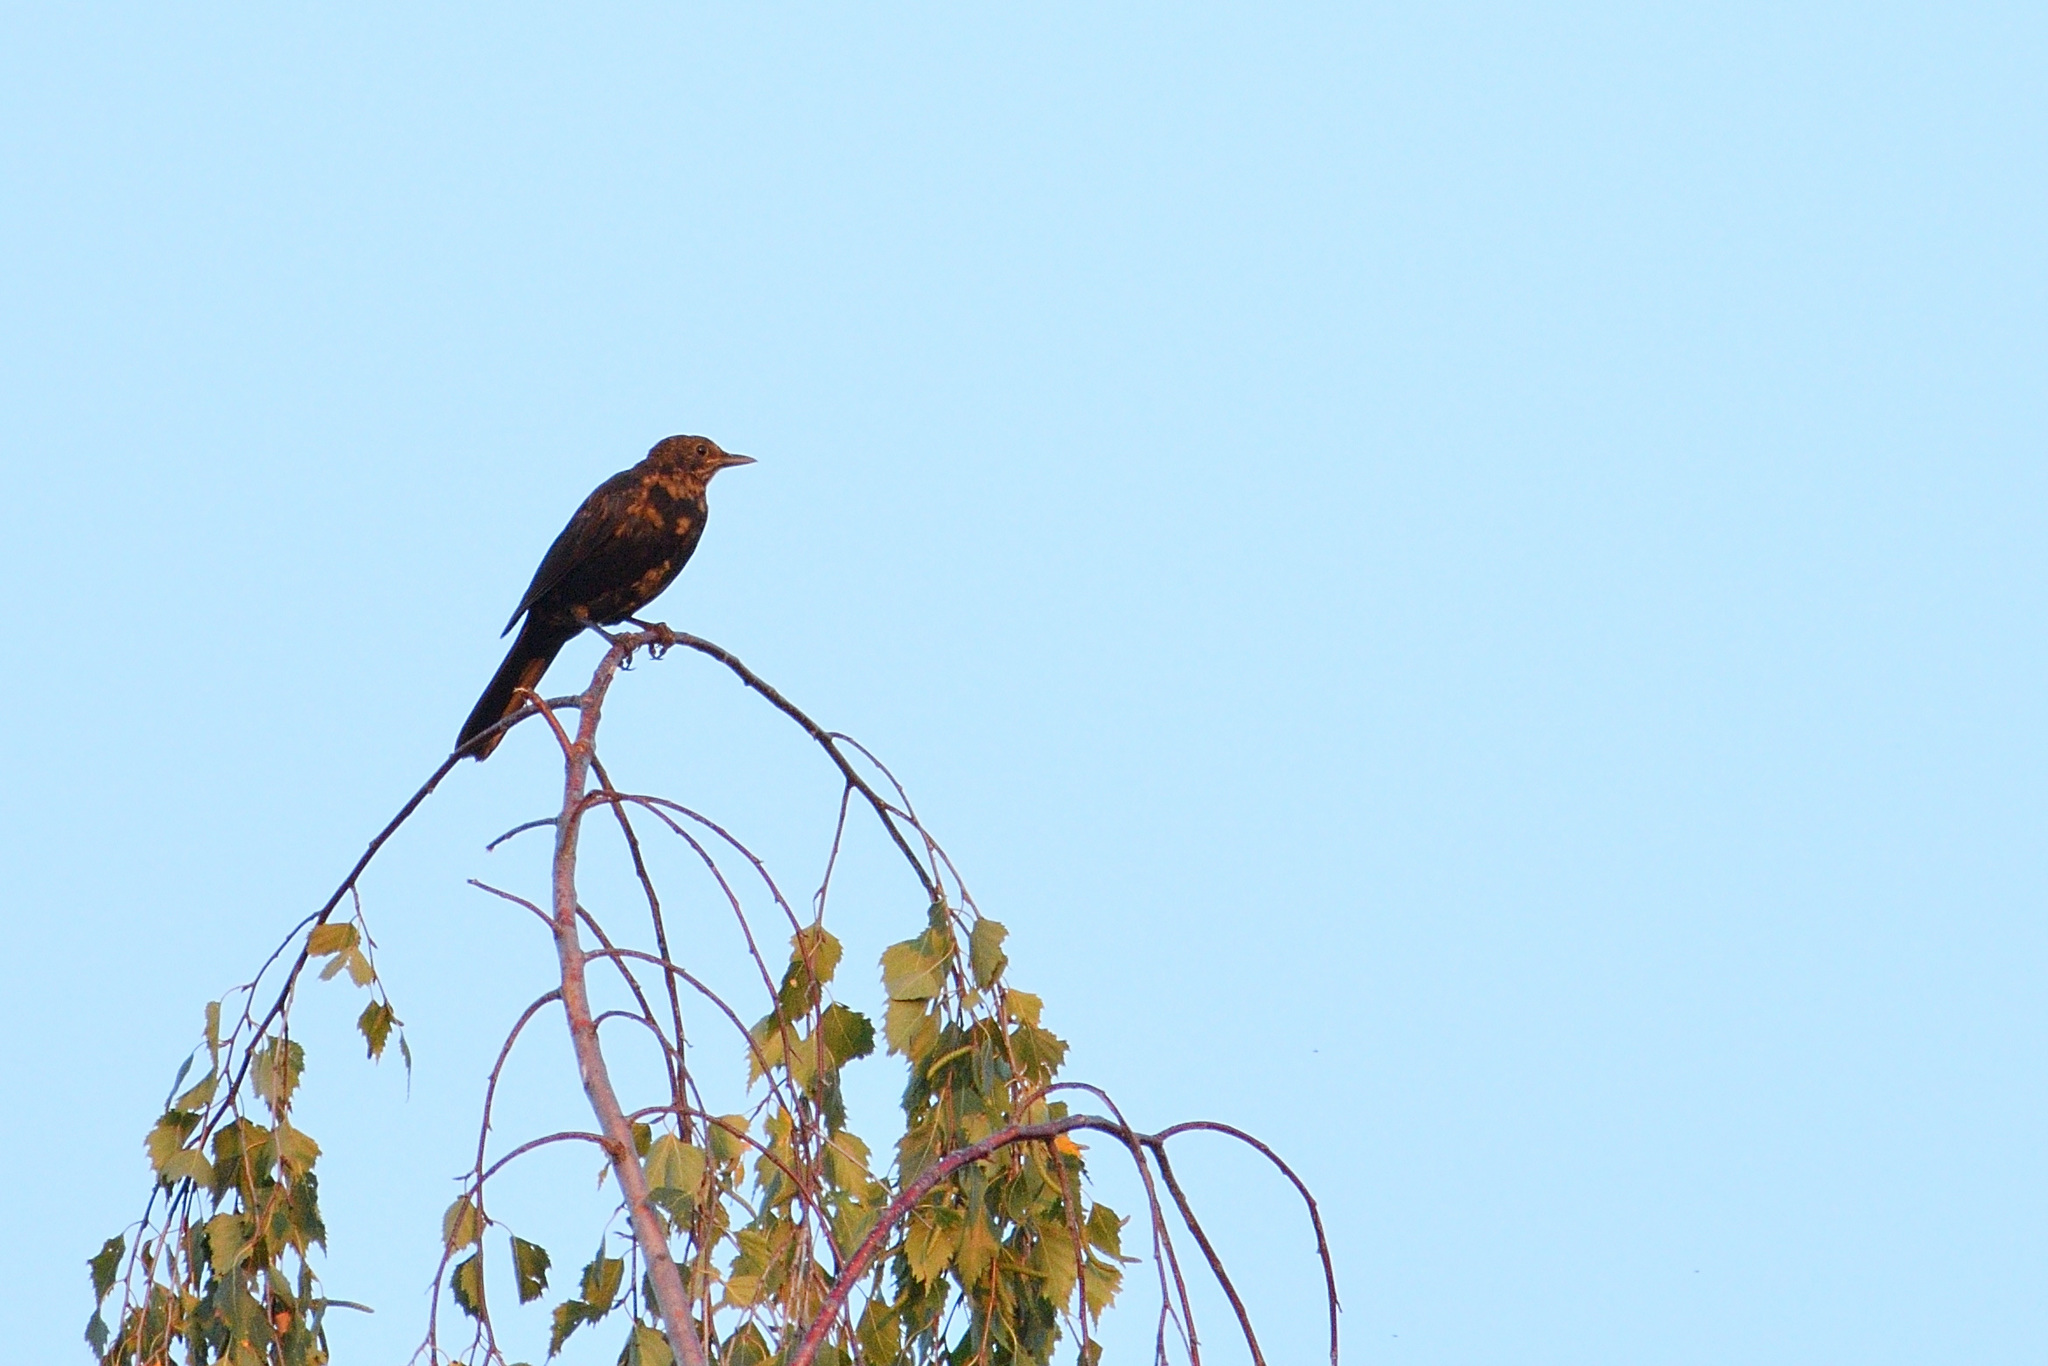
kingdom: Animalia
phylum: Chordata
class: Aves
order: Passeriformes
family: Turdidae
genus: Turdus
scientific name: Turdus merula
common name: Common blackbird
